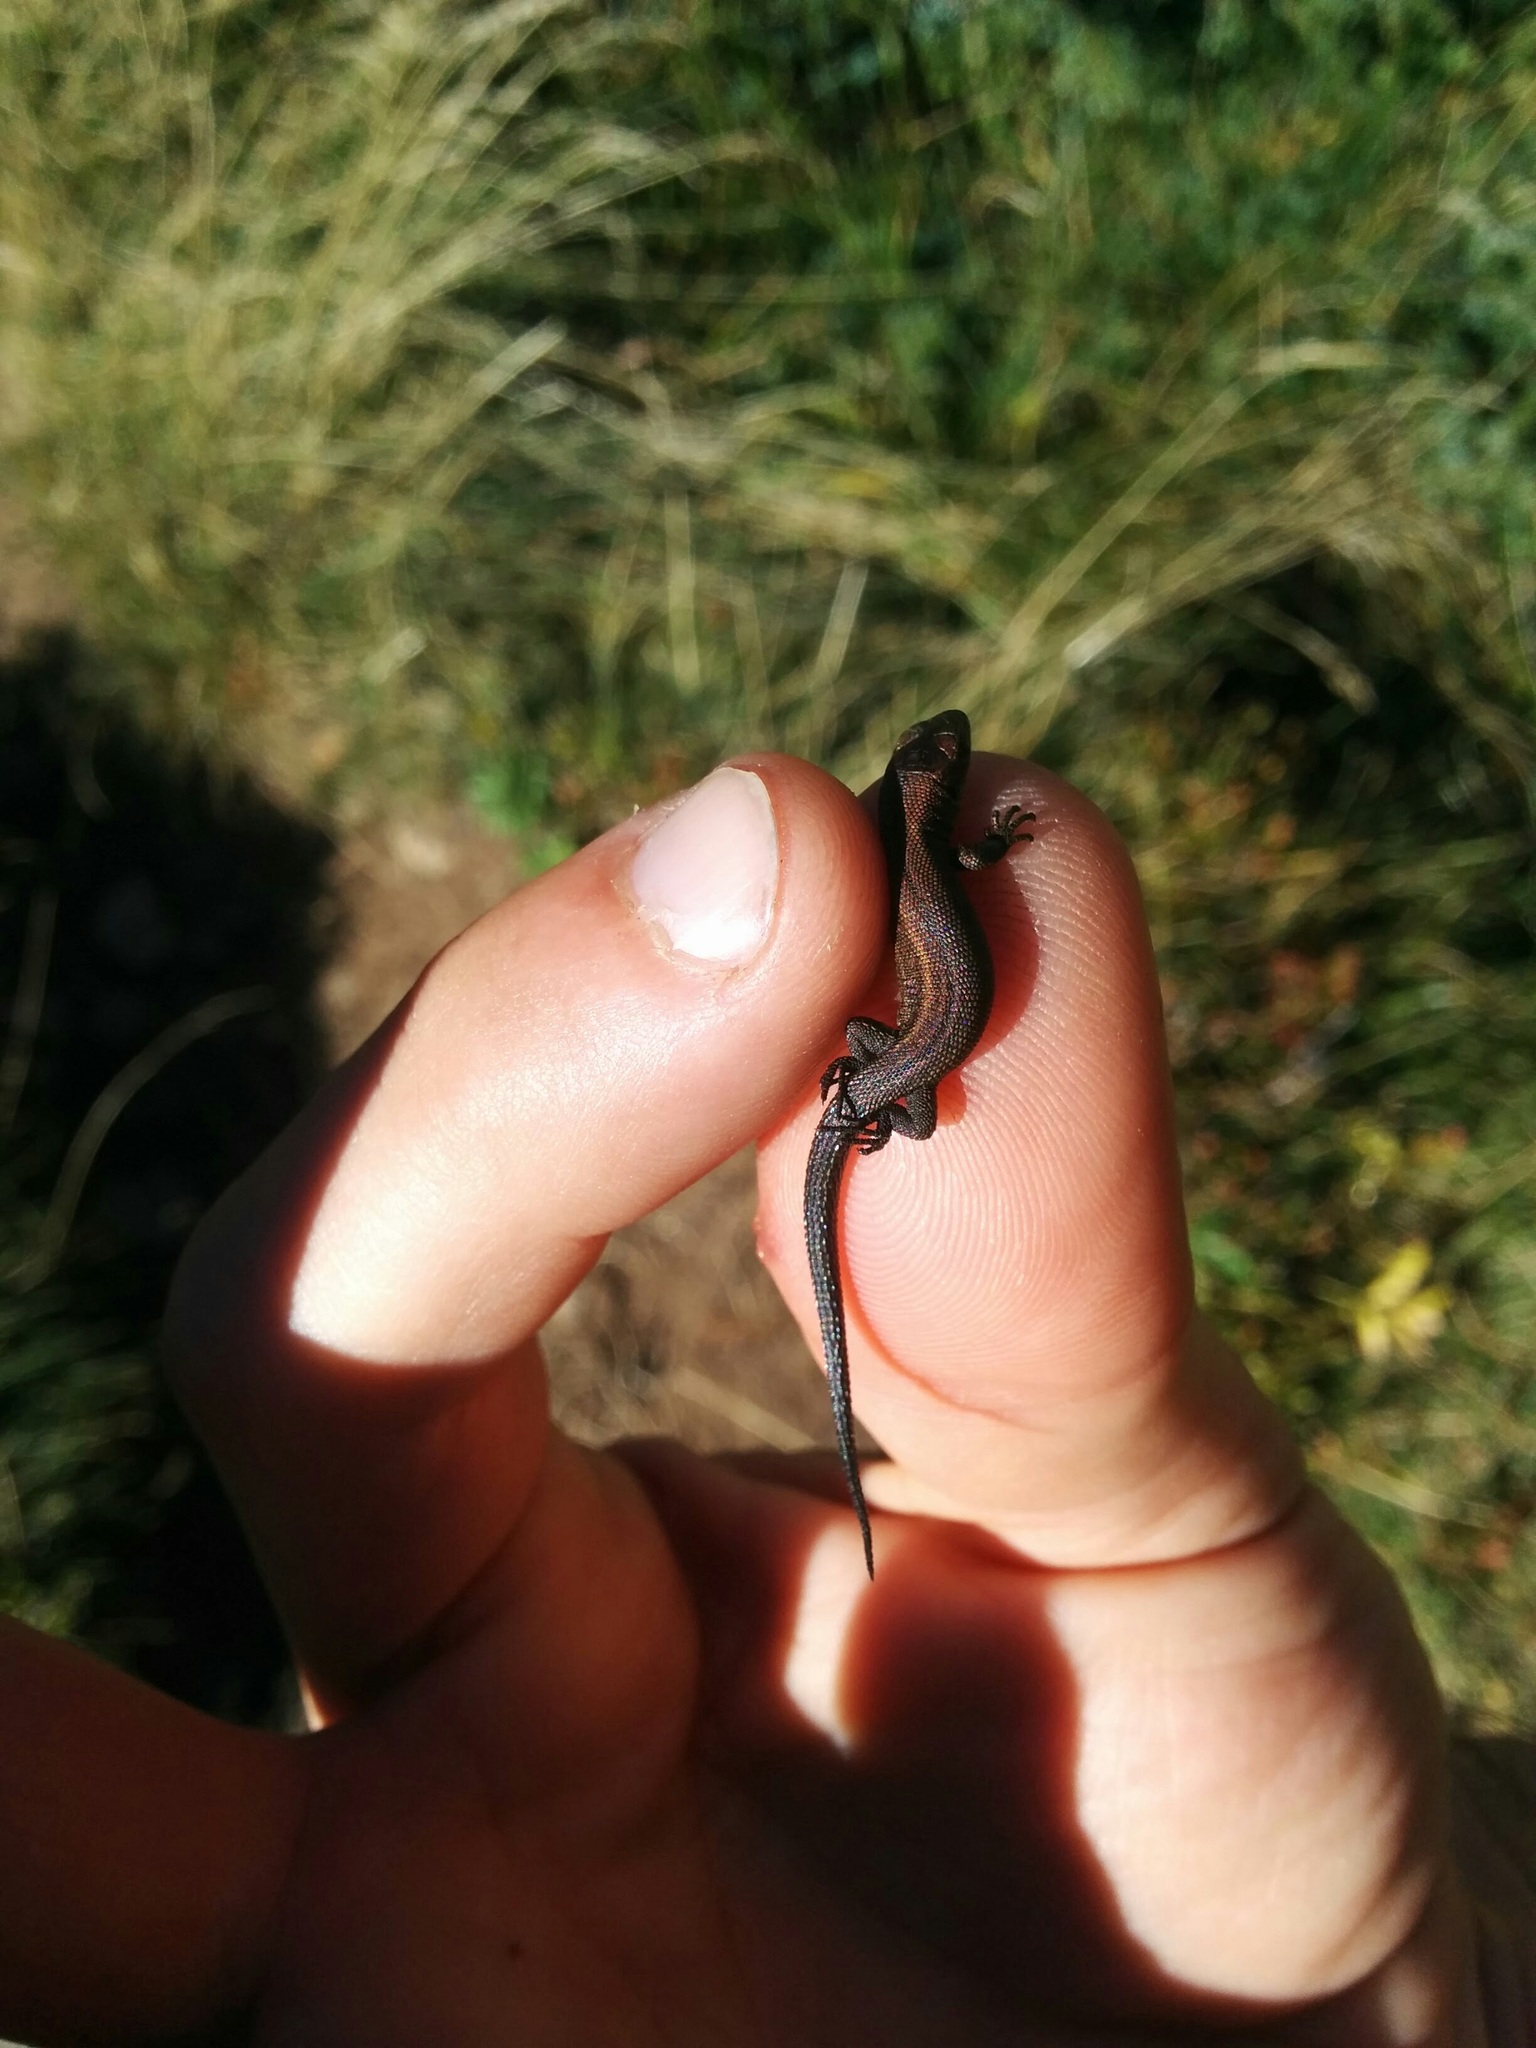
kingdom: Animalia
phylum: Chordata
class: Squamata
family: Lacertidae
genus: Zootoca
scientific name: Zootoca vivipara
